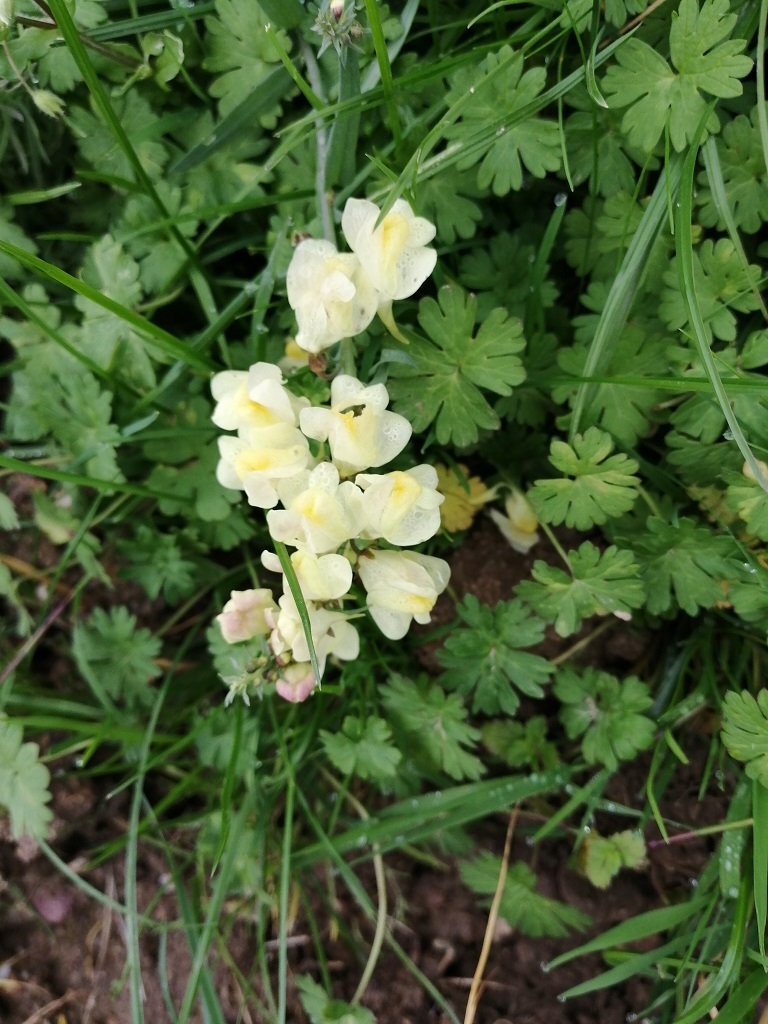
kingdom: Plantae
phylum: Tracheophyta
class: Magnoliopsida
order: Lamiales
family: Plantaginaceae
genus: Linaria
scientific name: Linaria vulgaris
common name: Butter and eggs
